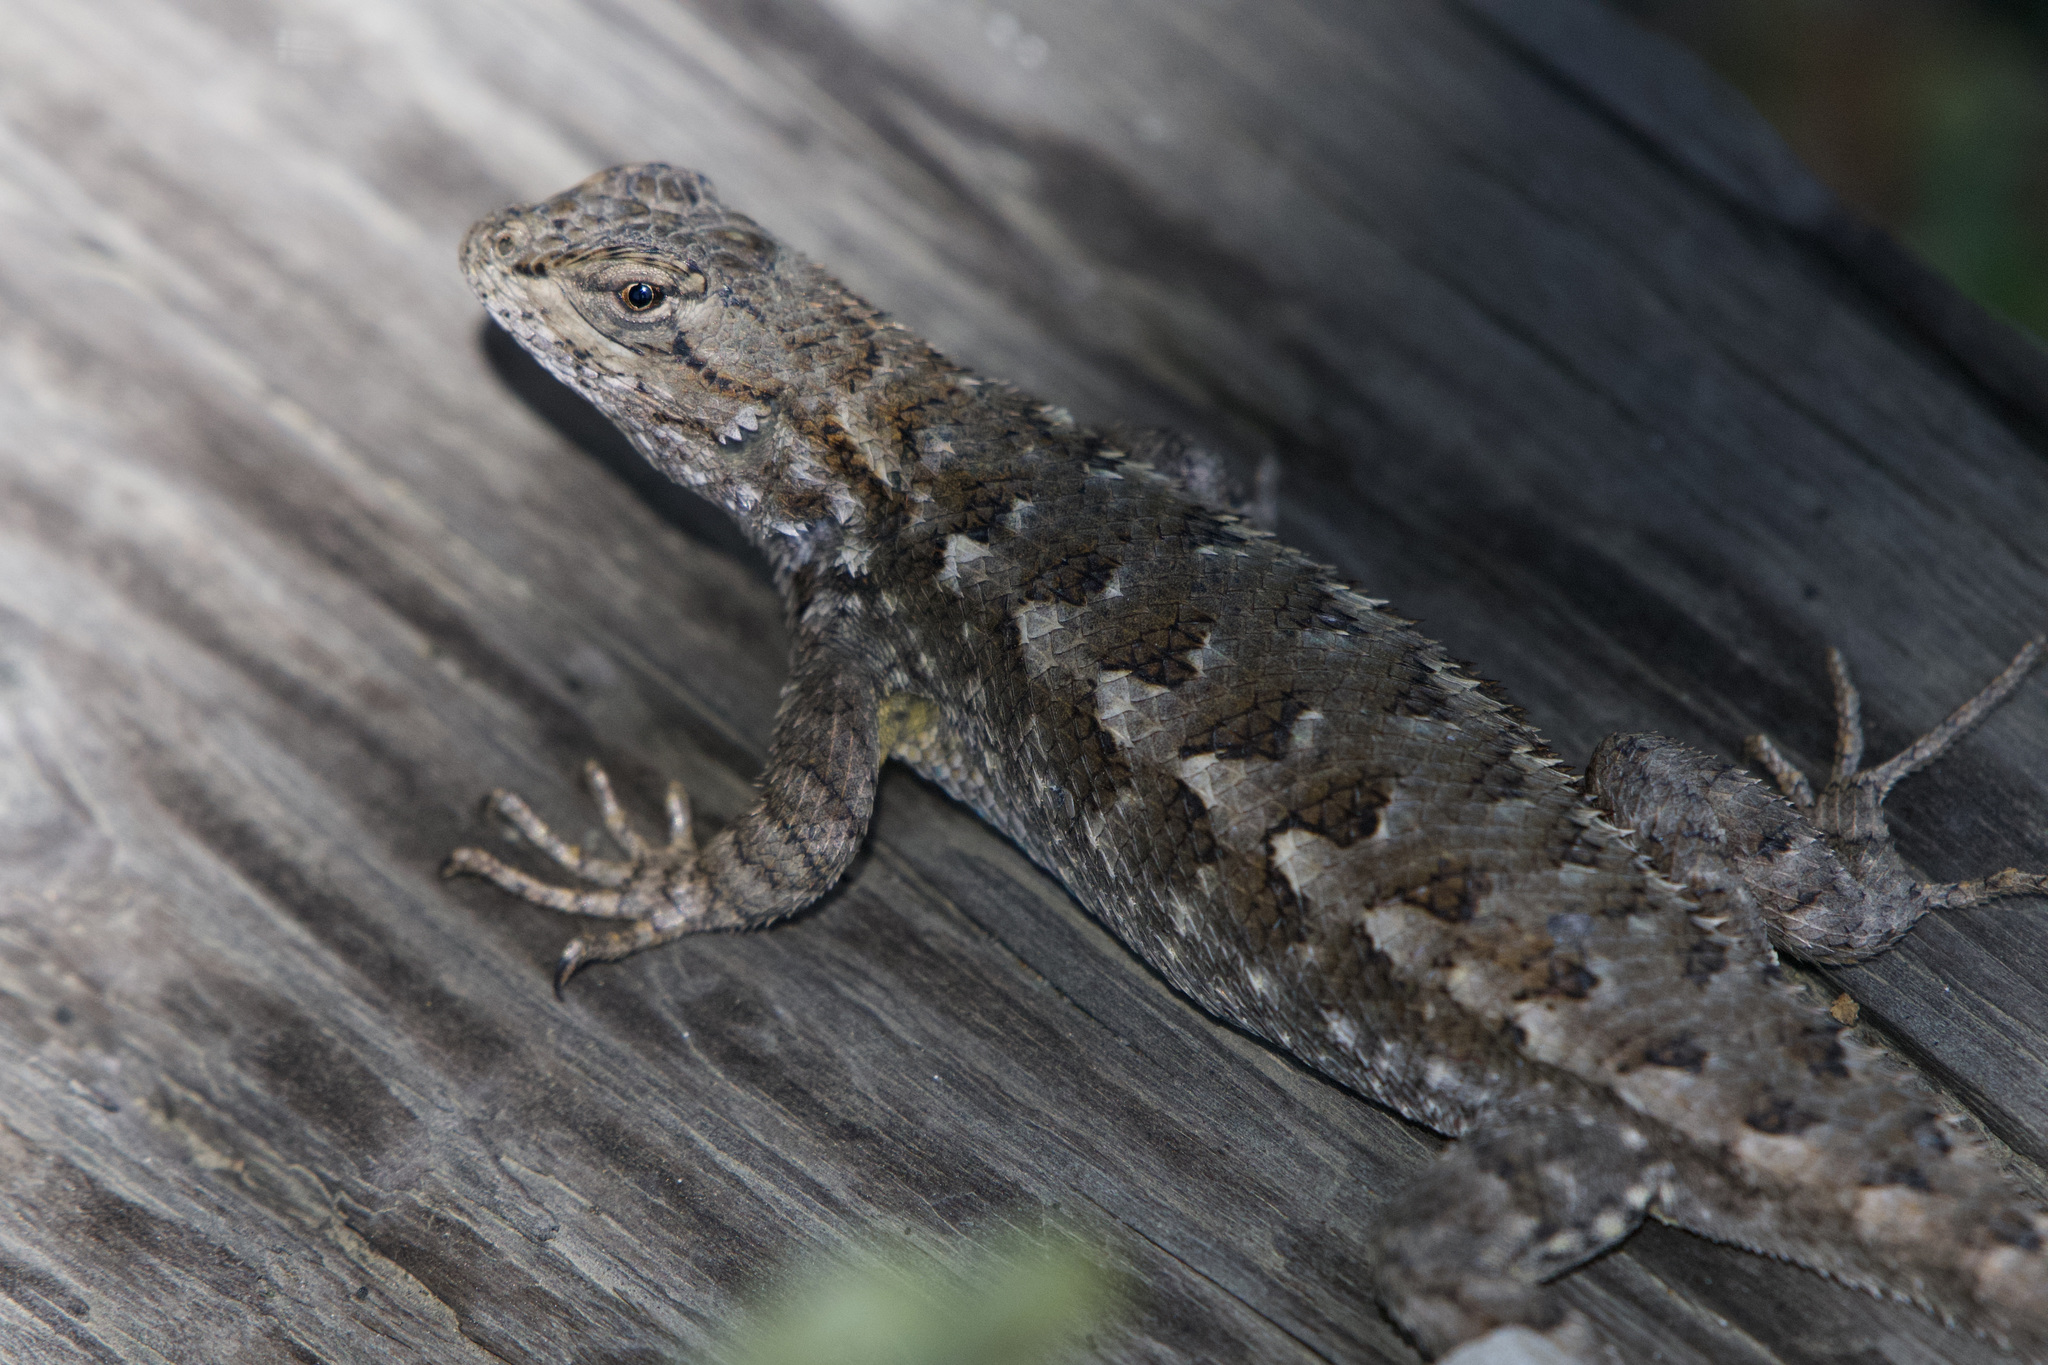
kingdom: Animalia
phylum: Chordata
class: Squamata
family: Phrynosomatidae
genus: Sceloporus
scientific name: Sceloporus occidentalis
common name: Western fence lizard
